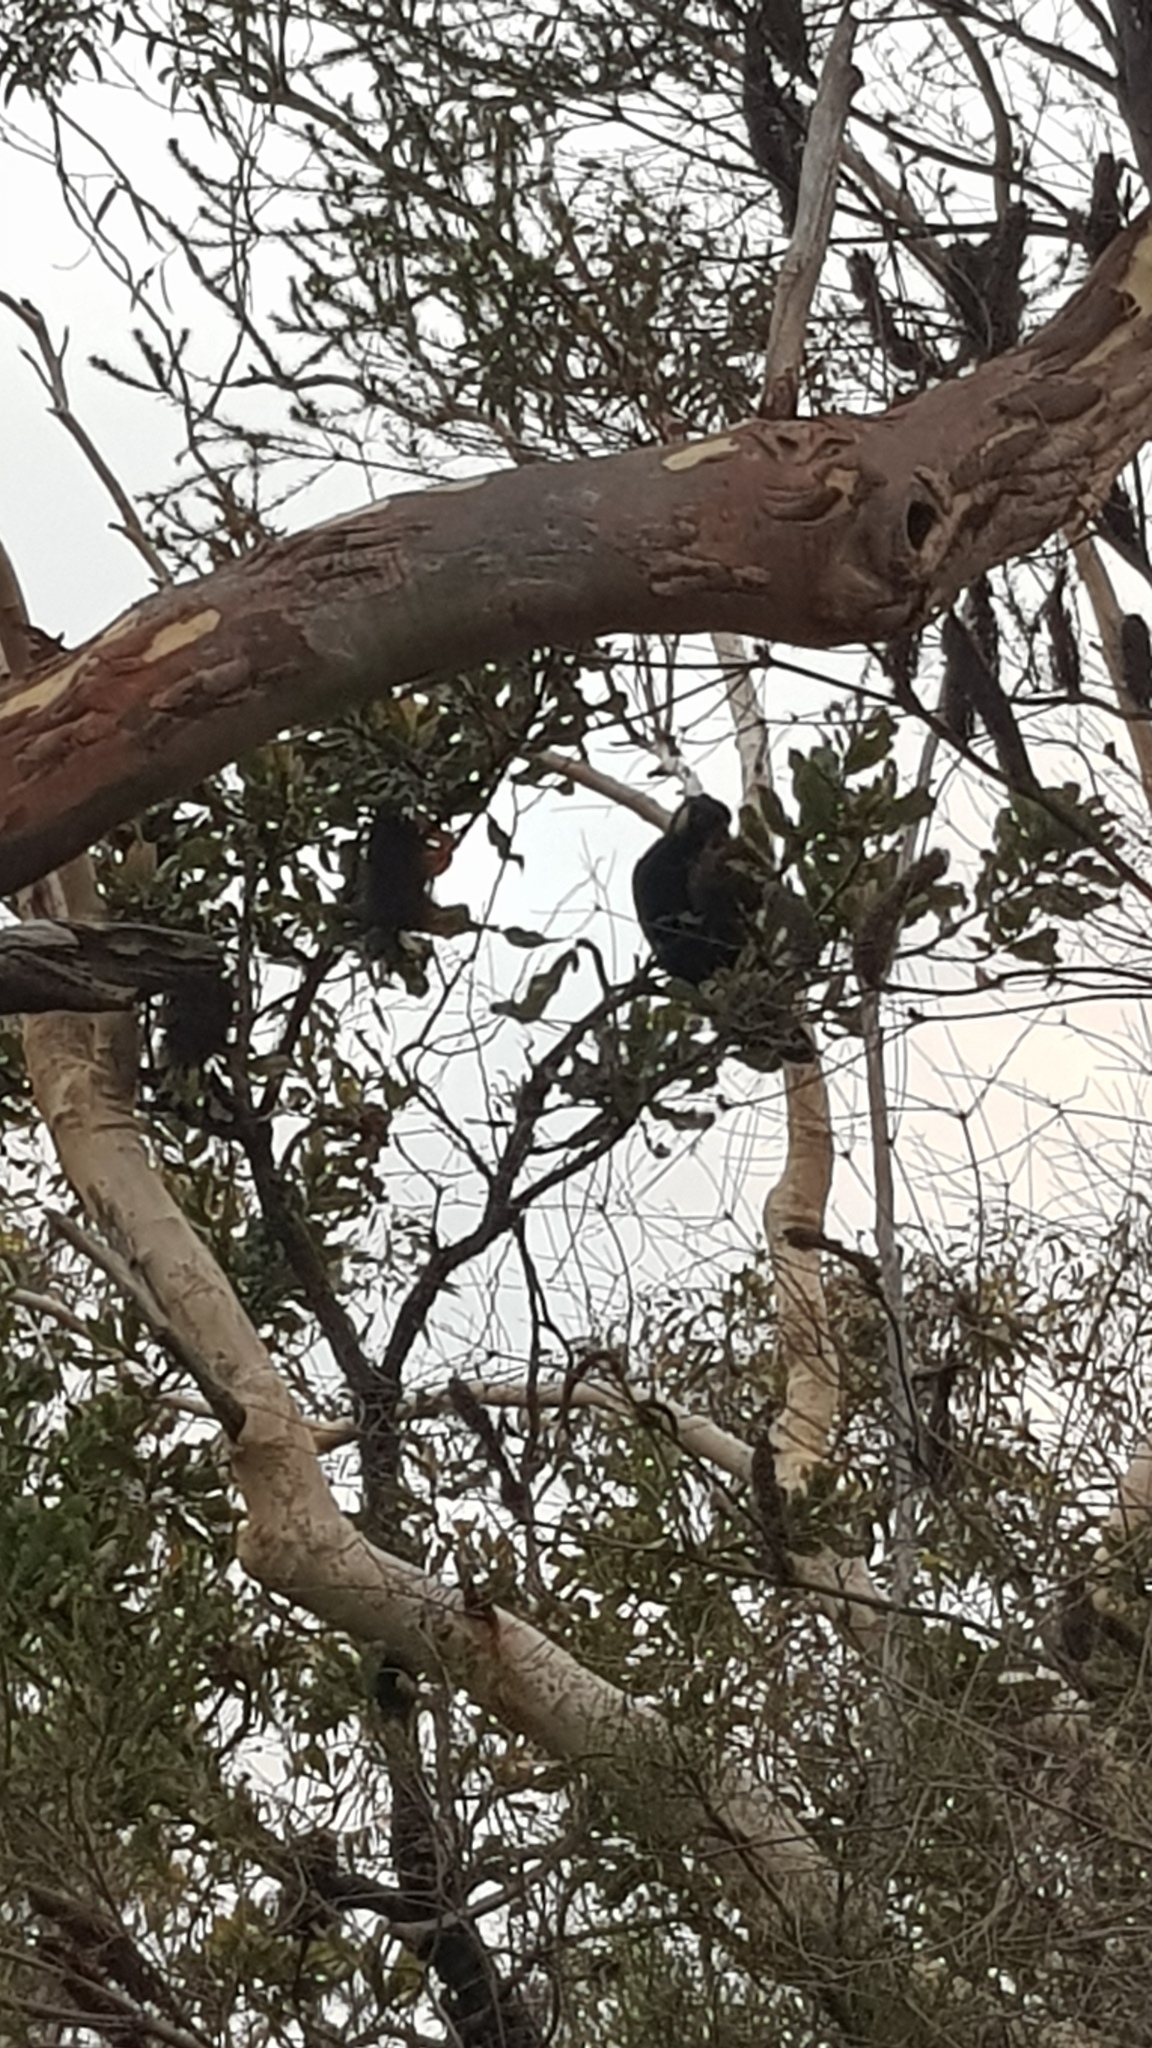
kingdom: Animalia
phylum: Chordata
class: Aves
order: Psittaciformes
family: Cacatuidae
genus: Zanda
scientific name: Zanda funerea
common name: Yellow-tailed black-cockatoo
